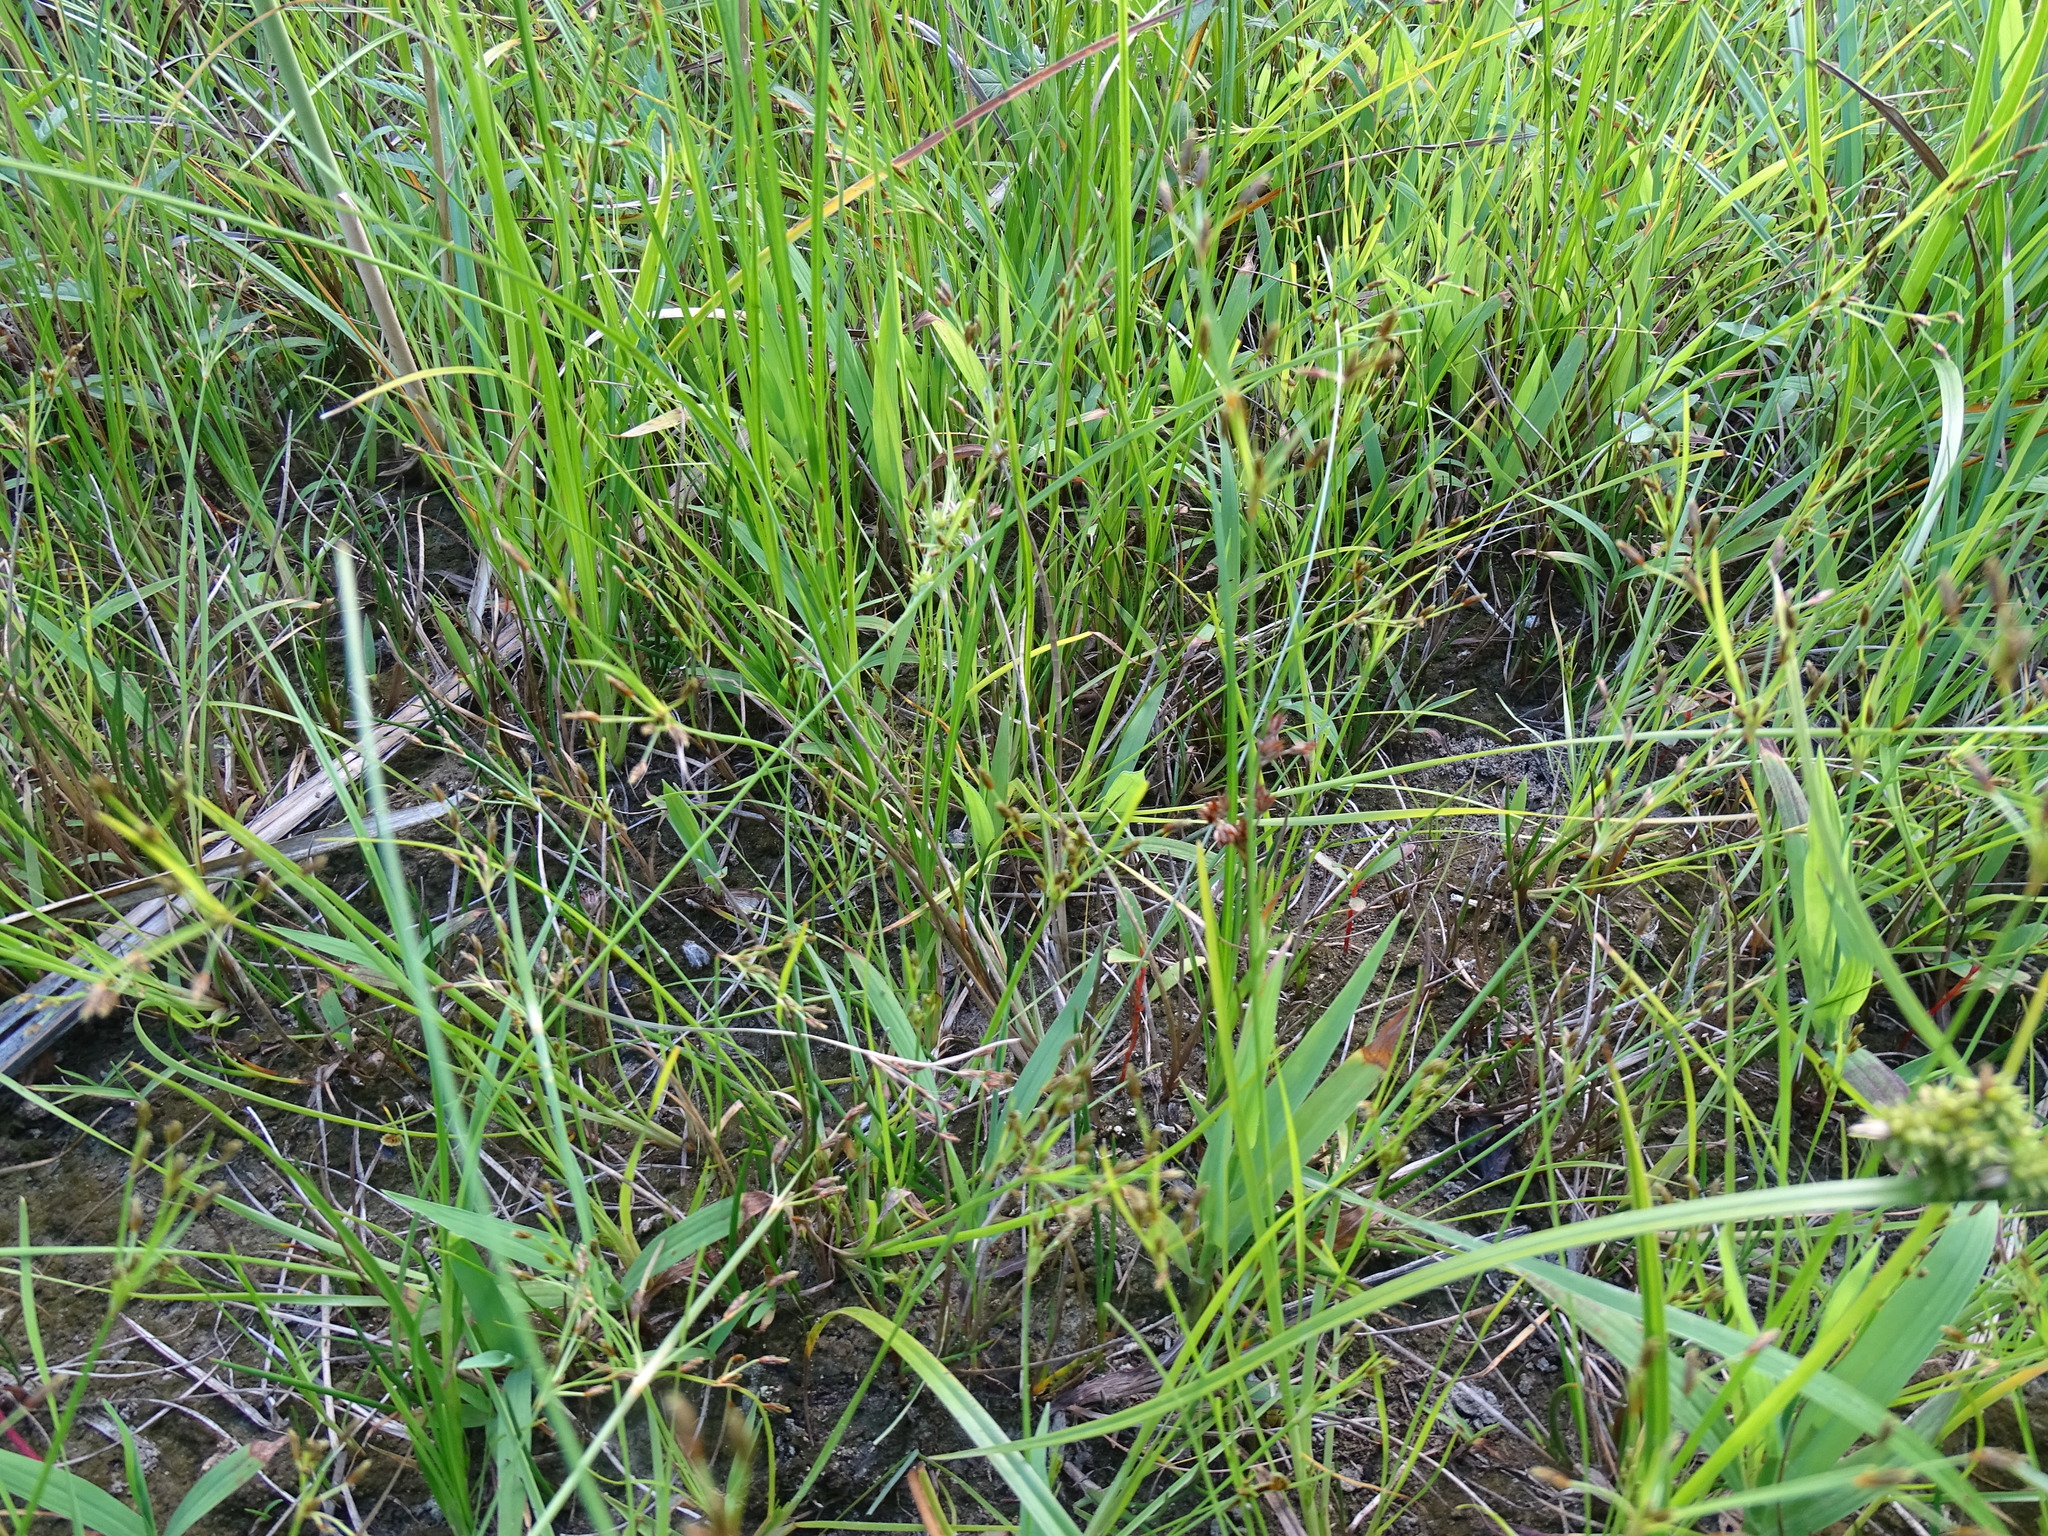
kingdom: Plantae
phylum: Tracheophyta
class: Liliopsida
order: Poales
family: Cyperaceae
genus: Fimbristylis
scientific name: Fimbristylis autumnalis
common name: Slender fimbristylis
